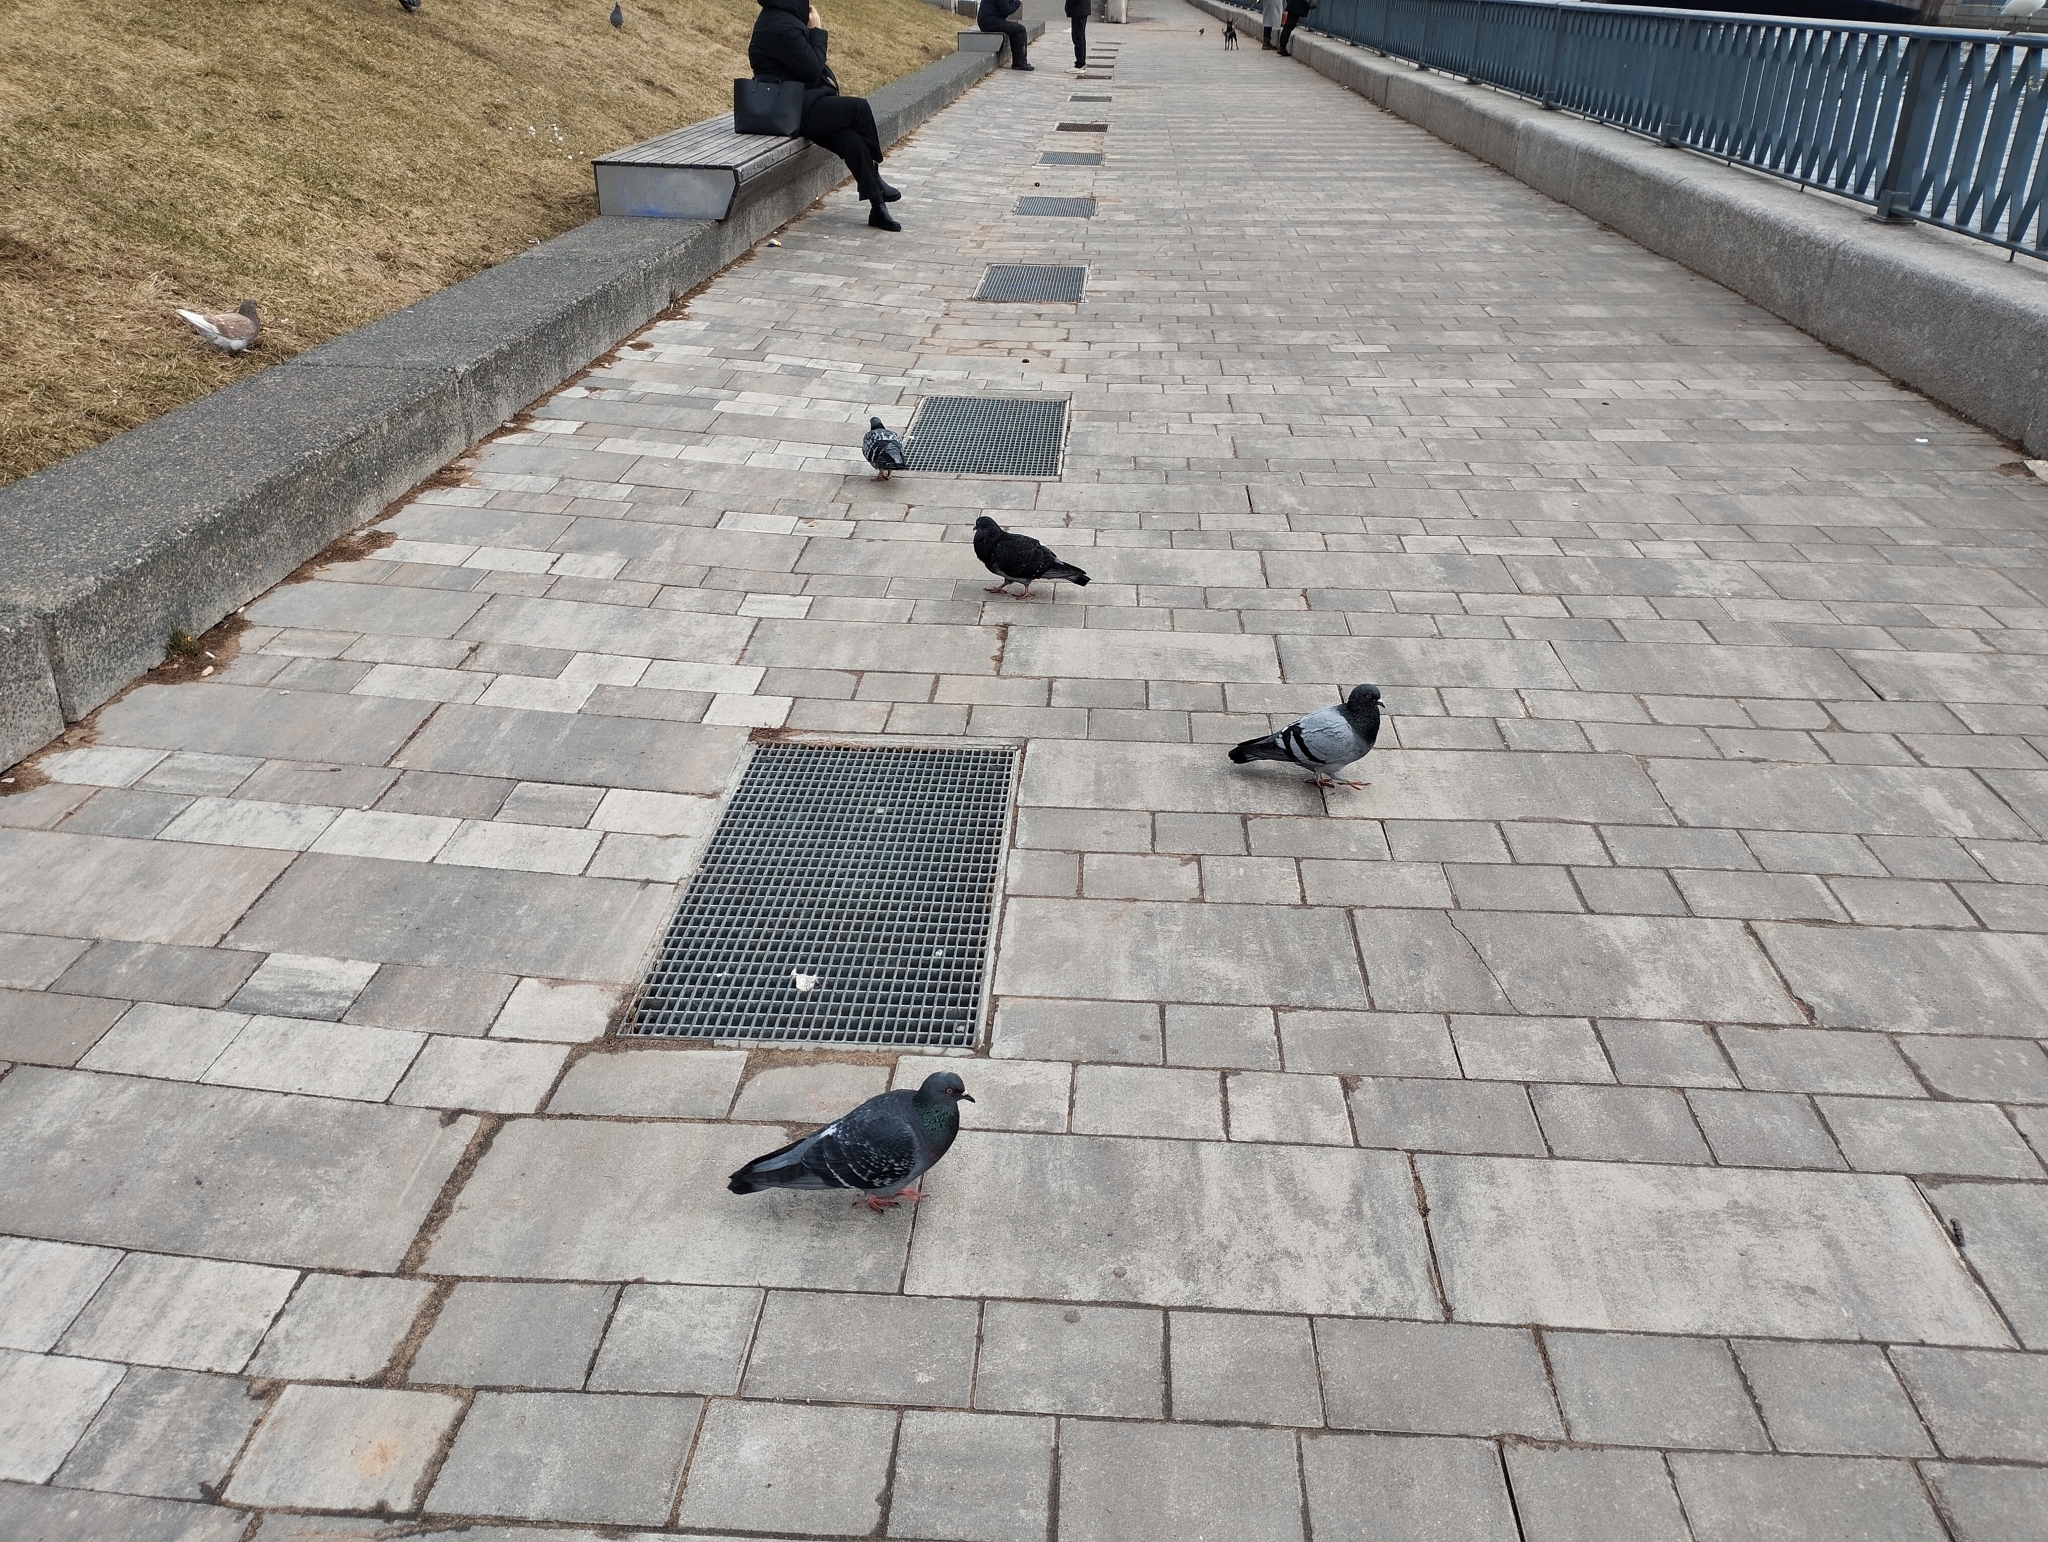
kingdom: Animalia
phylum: Chordata
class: Aves
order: Columbiformes
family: Columbidae
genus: Columba
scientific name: Columba livia
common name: Rock pigeon
